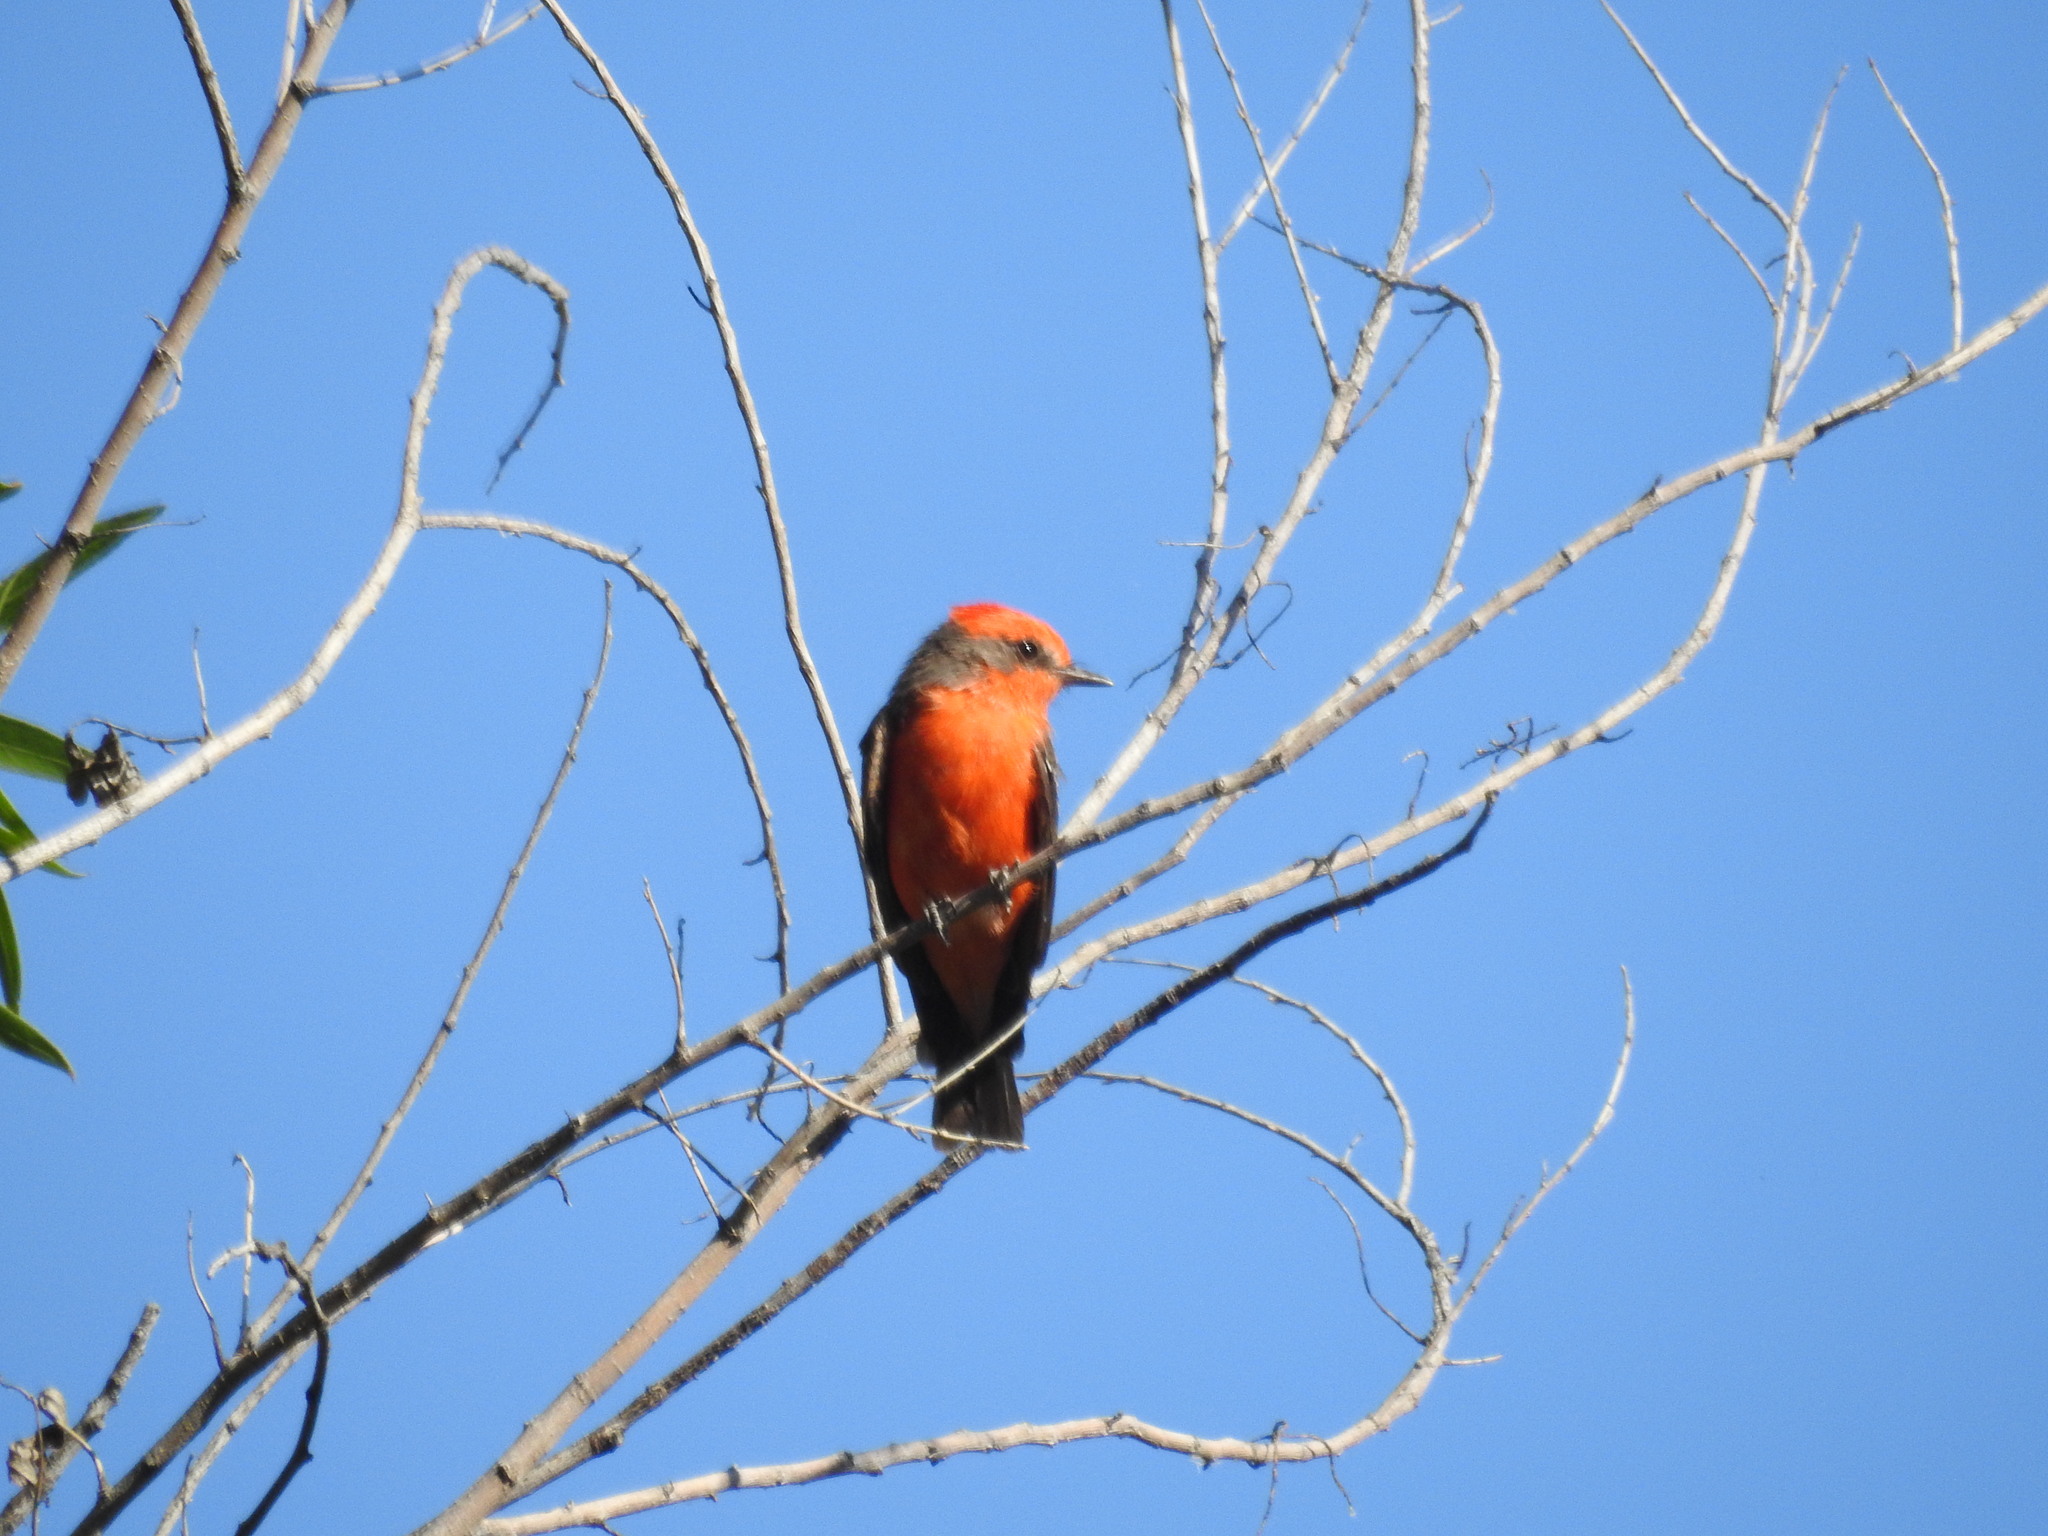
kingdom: Animalia
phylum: Chordata
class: Aves
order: Passeriformes
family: Tyrannidae
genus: Pyrocephalus
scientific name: Pyrocephalus rubinus
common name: Vermilion flycatcher
